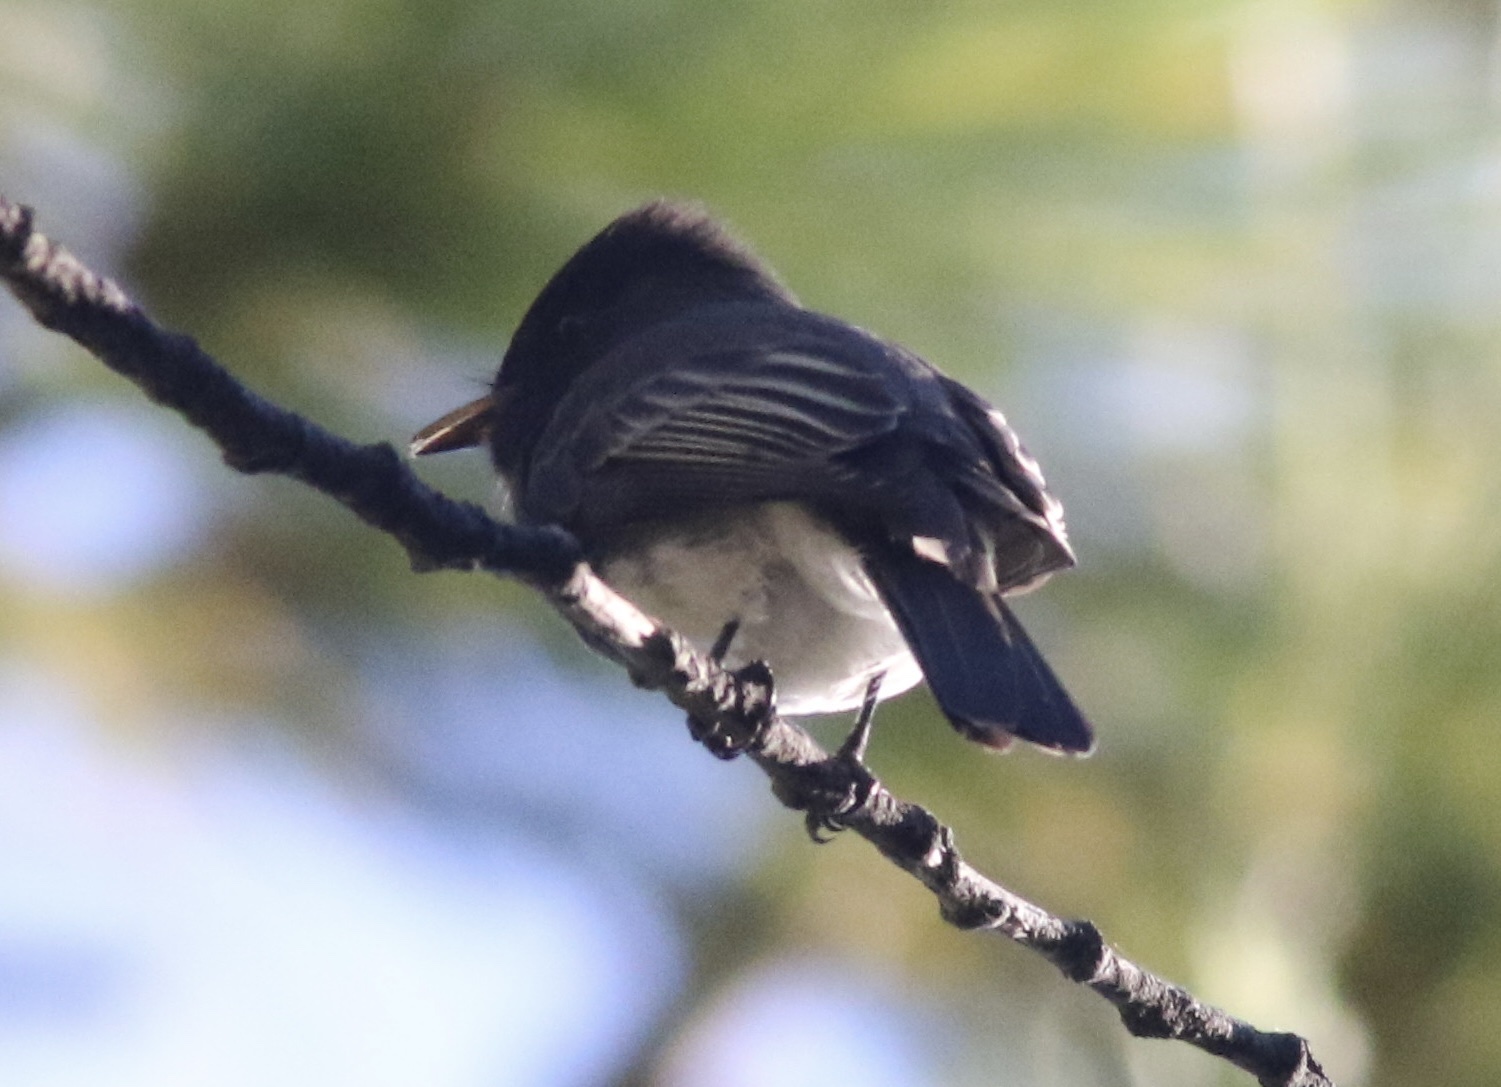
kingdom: Animalia
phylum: Chordata
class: Aves
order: Passeriformes
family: Tyrannidae
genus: Sayornis
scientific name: Sayornis nigricans
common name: Black phoebe
